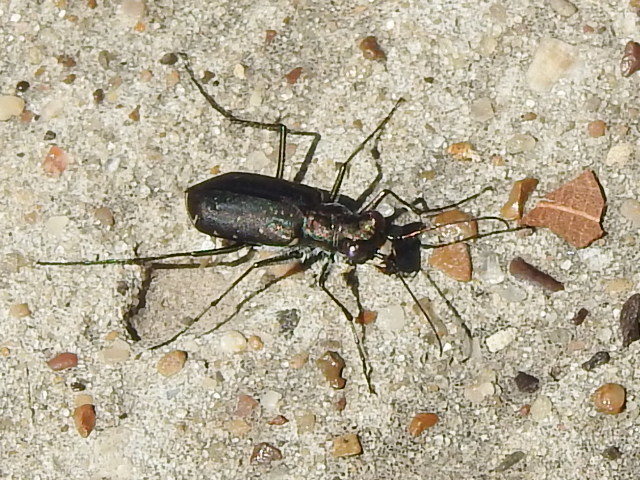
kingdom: Animalia
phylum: Arthropoda
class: Insecta
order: Coleoptera
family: Carabidae
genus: Cicindela
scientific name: Cicindela punctulata
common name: Punctured tiger beetle
